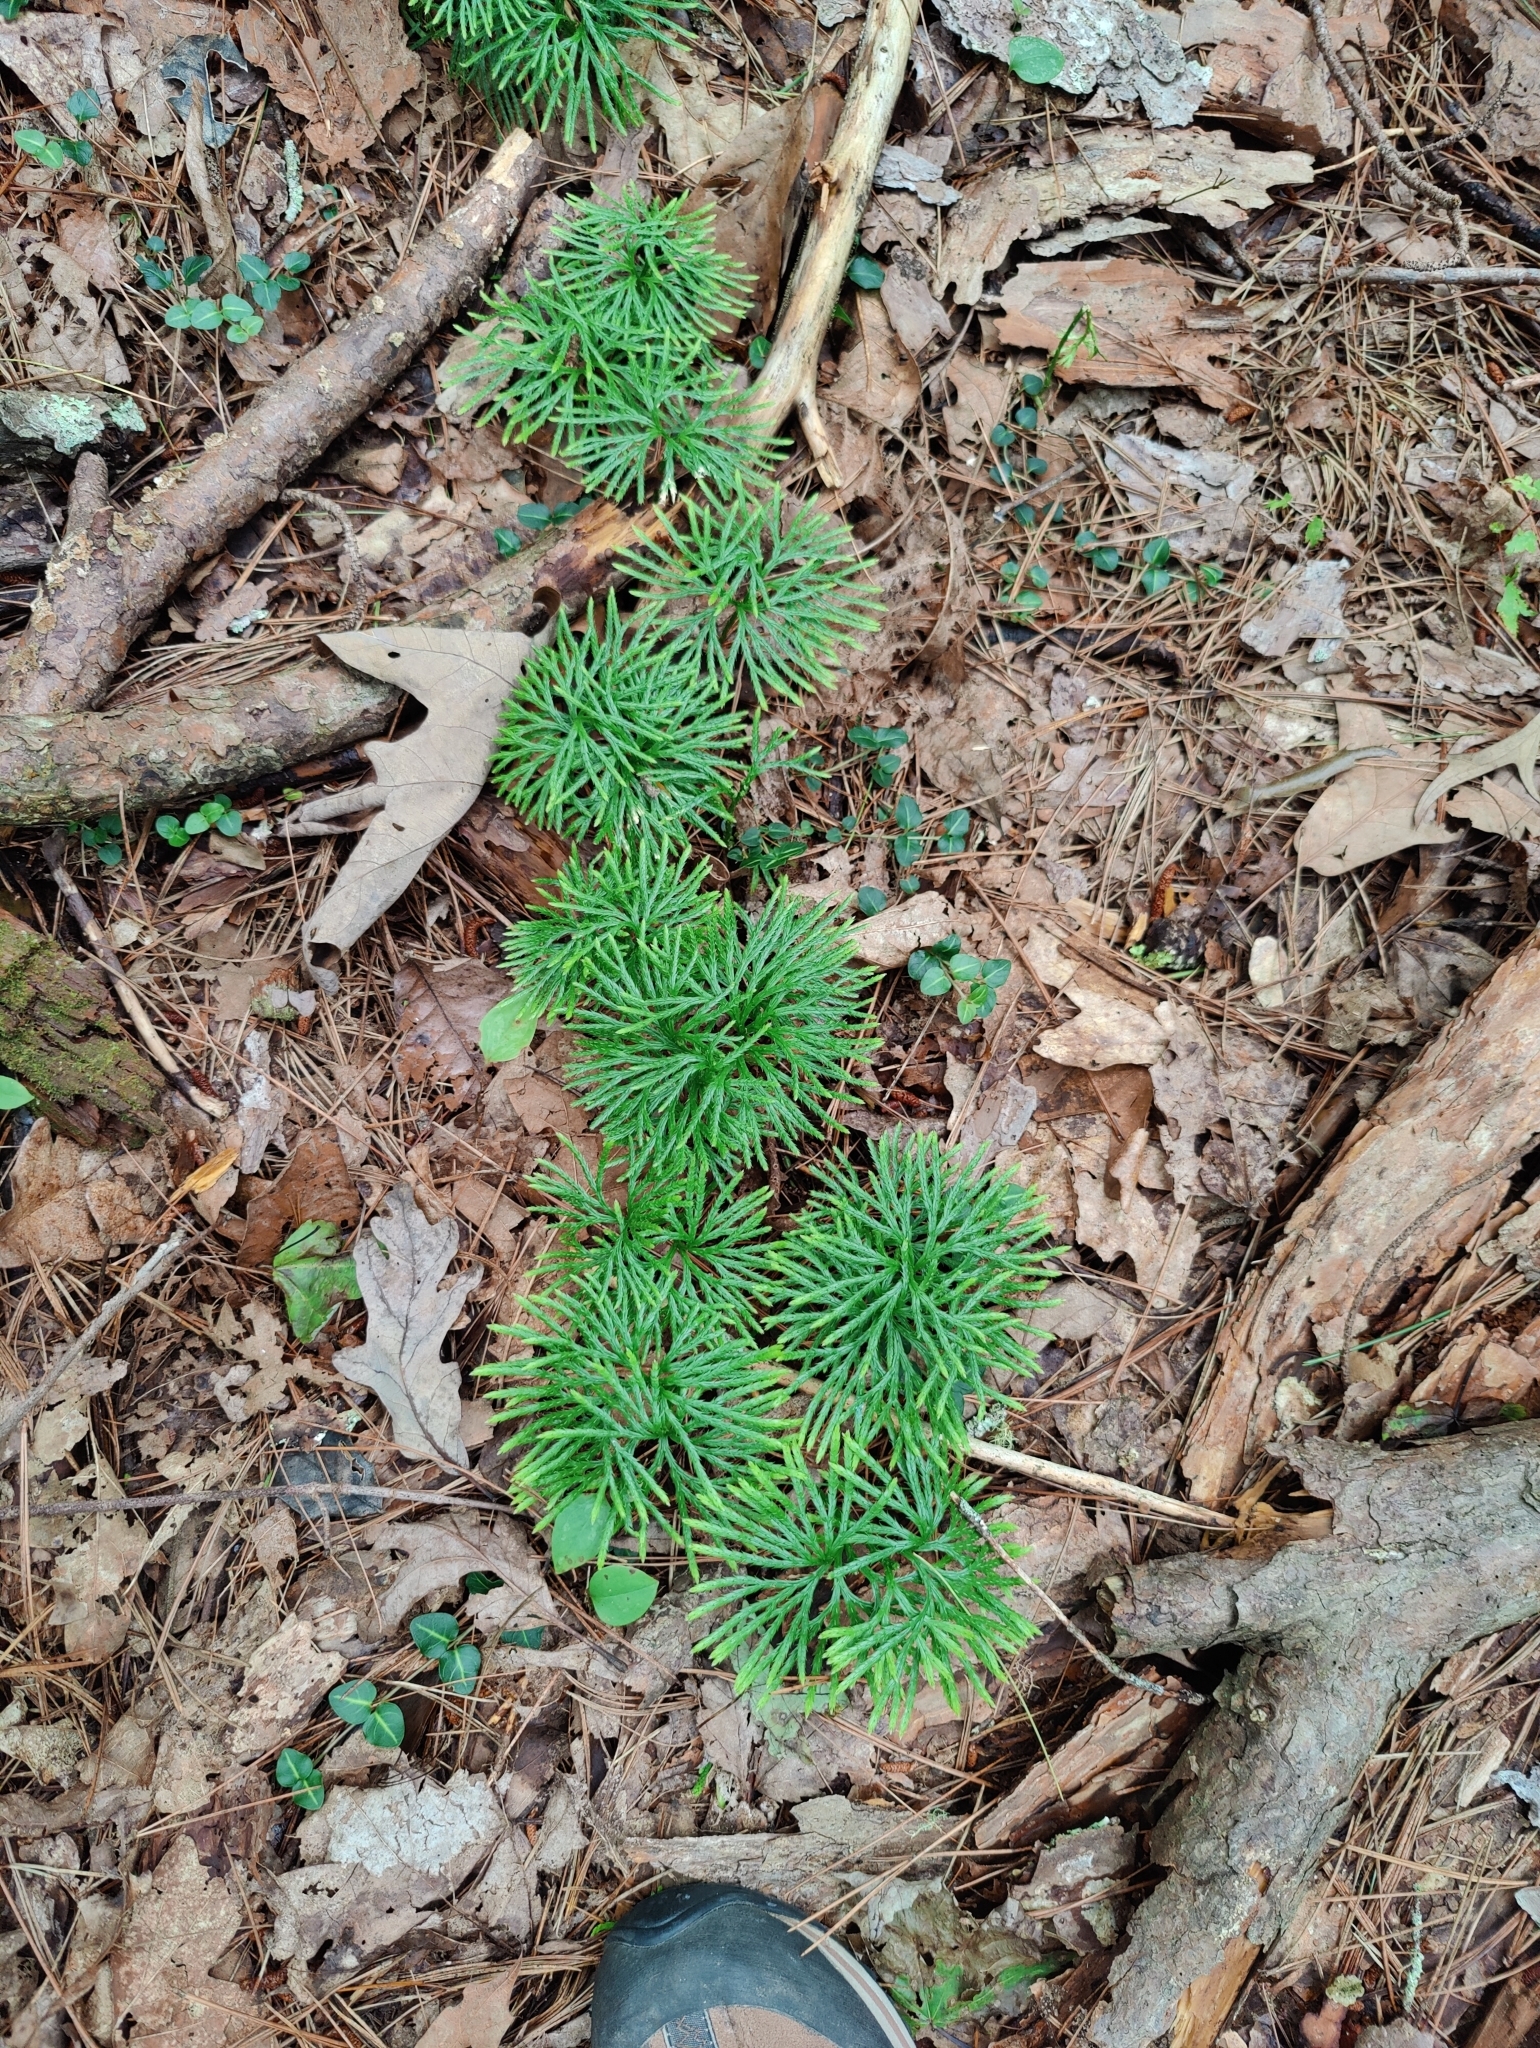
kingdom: Plantae
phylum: Tracheophyta
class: Lycopodiopsida
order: Lycopodiales
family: Lycopodiaceae
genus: Diphasiastrum
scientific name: Diphasiastrum digitatum
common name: Southern running-pine
